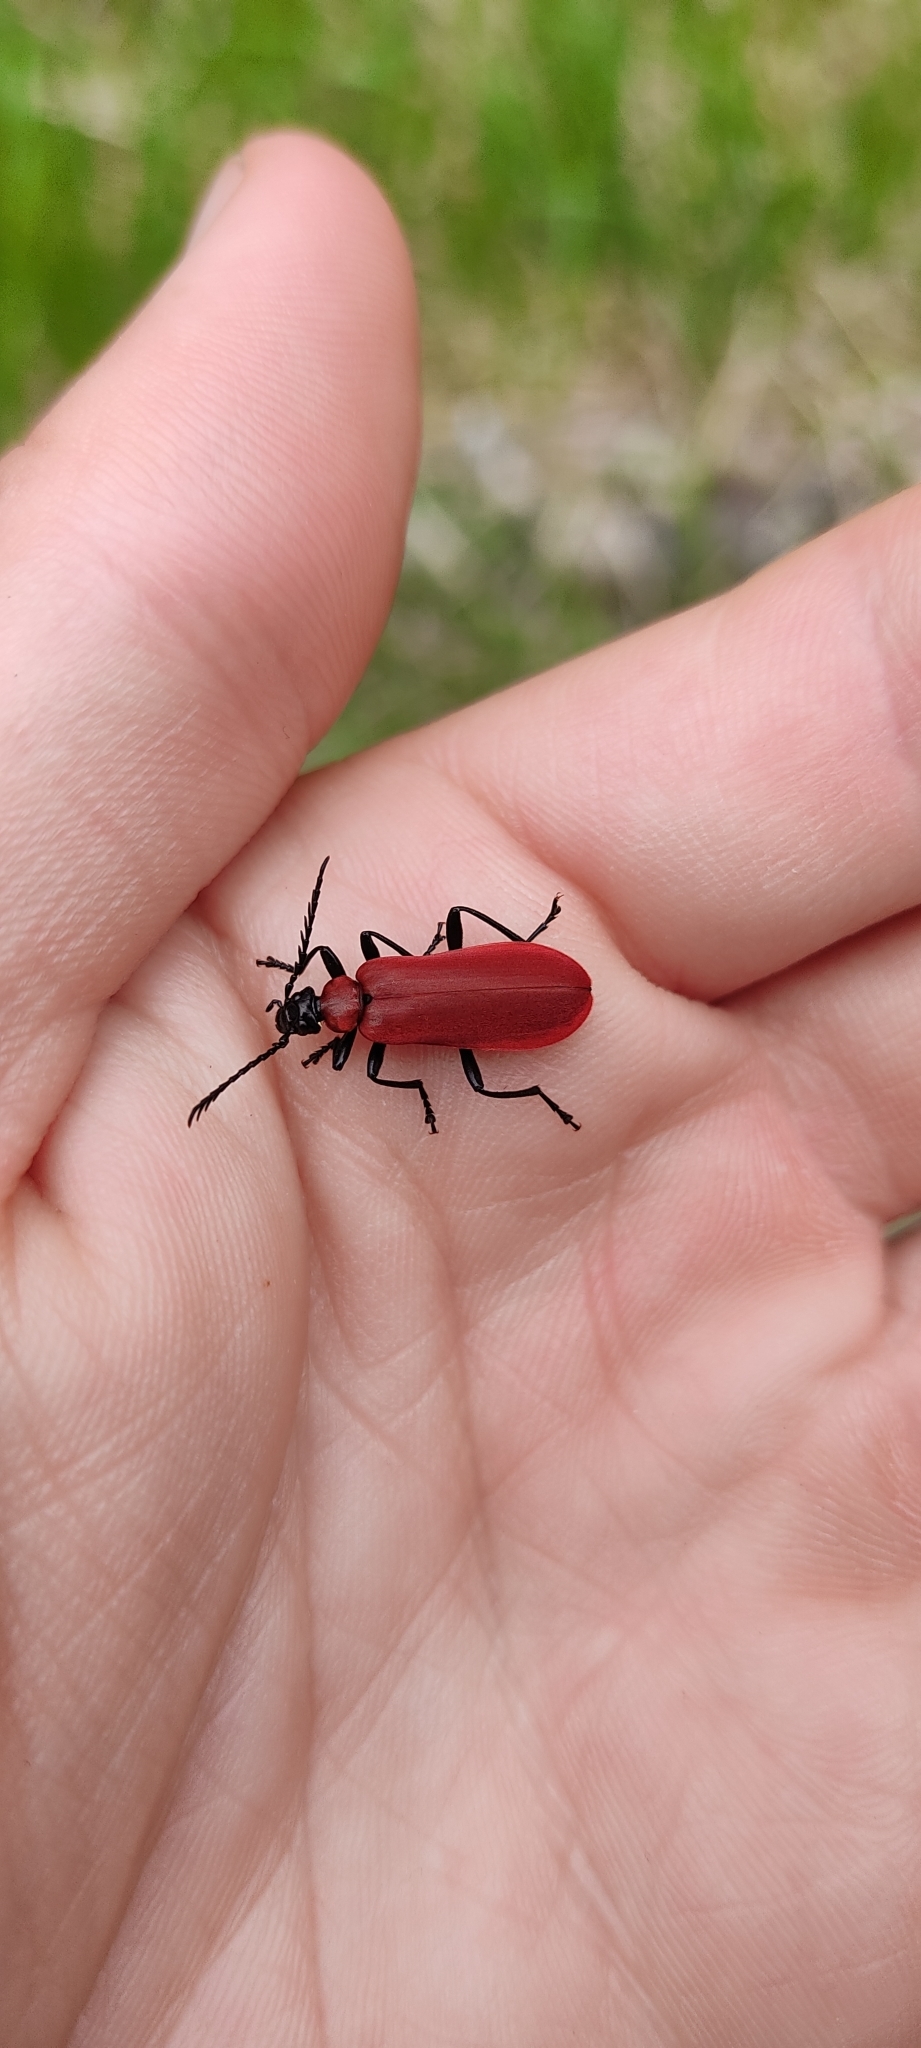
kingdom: Animalia
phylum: Arthropoda
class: Insecta
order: Coleoptera
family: Pyrochroidae
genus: Pyrochroa
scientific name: Pyrochroa coccinea
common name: Black-headed cardinal beetle
